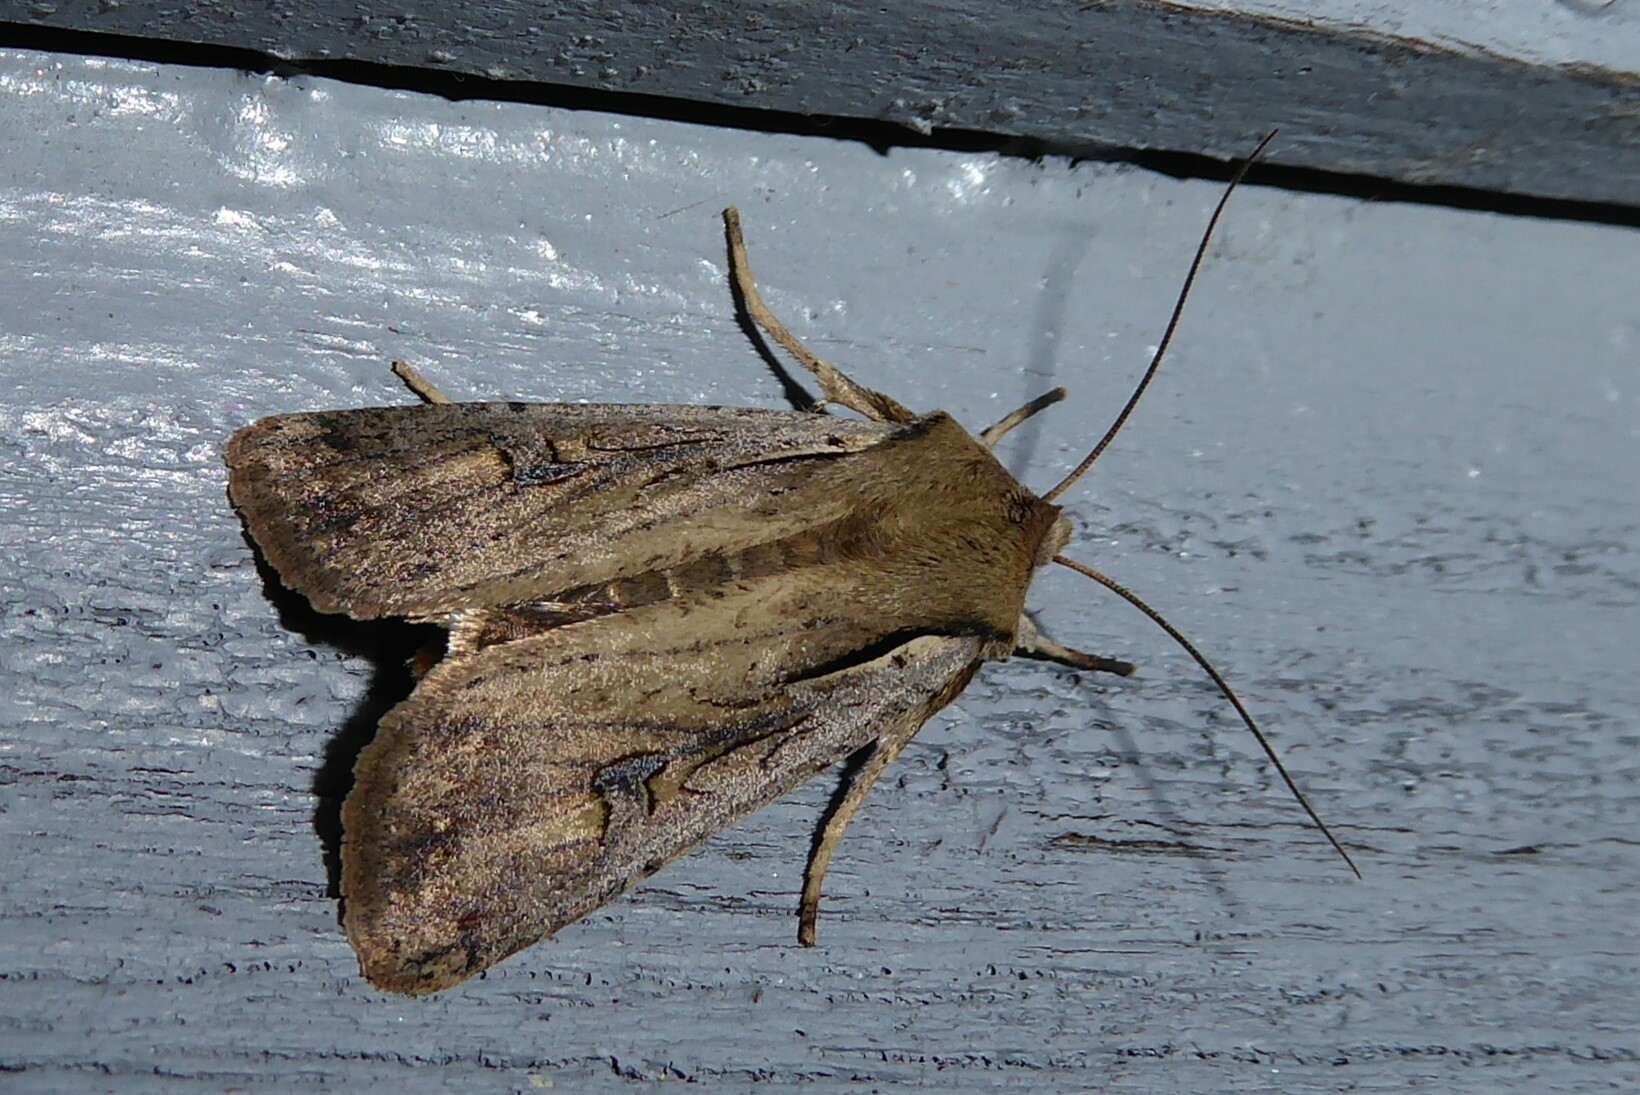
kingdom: Animalia
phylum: Arthropoda
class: Insecta
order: Lepidoptera
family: Noctuidae
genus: Ichneutica
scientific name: Ichneutica atristriga
